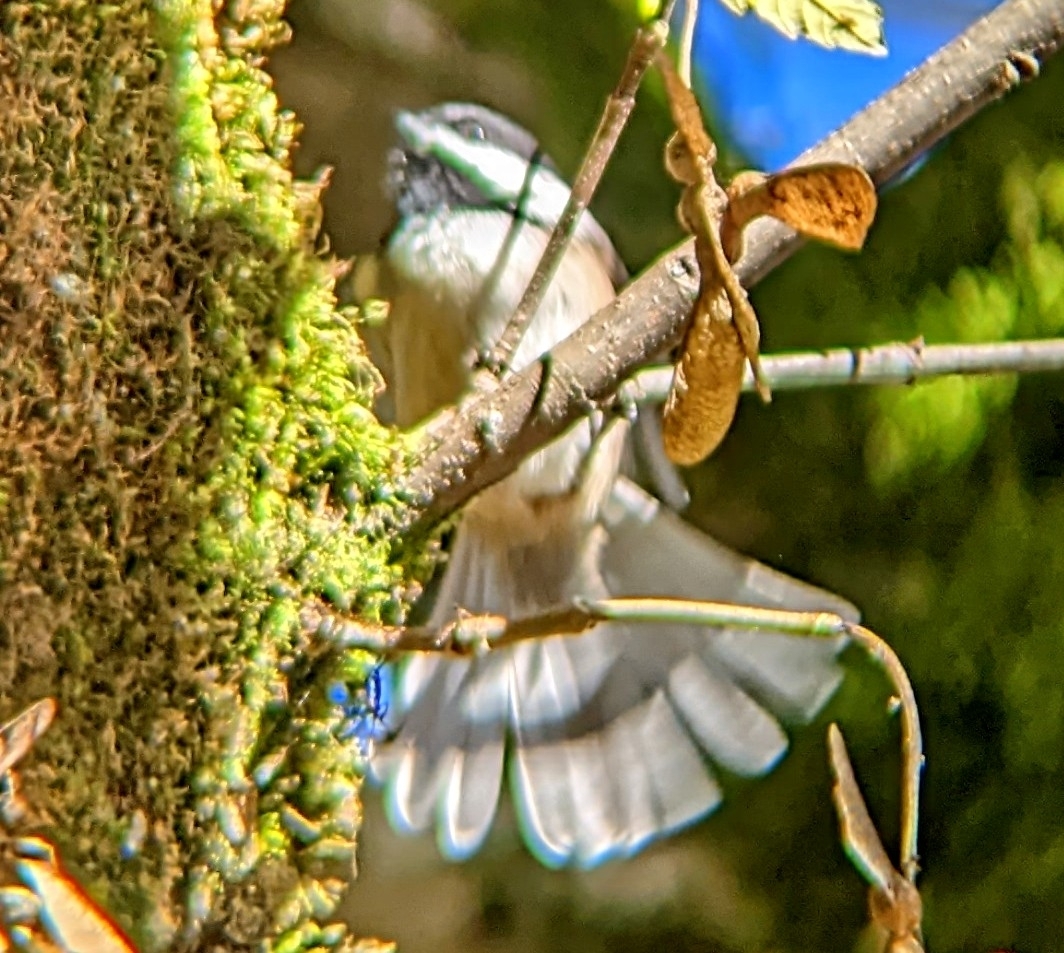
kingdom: Animalia
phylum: Chordata
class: Aves
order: Passeriformes
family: Paridae
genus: Poecile
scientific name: Poecile atricapillus
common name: Black-capped chickadee
